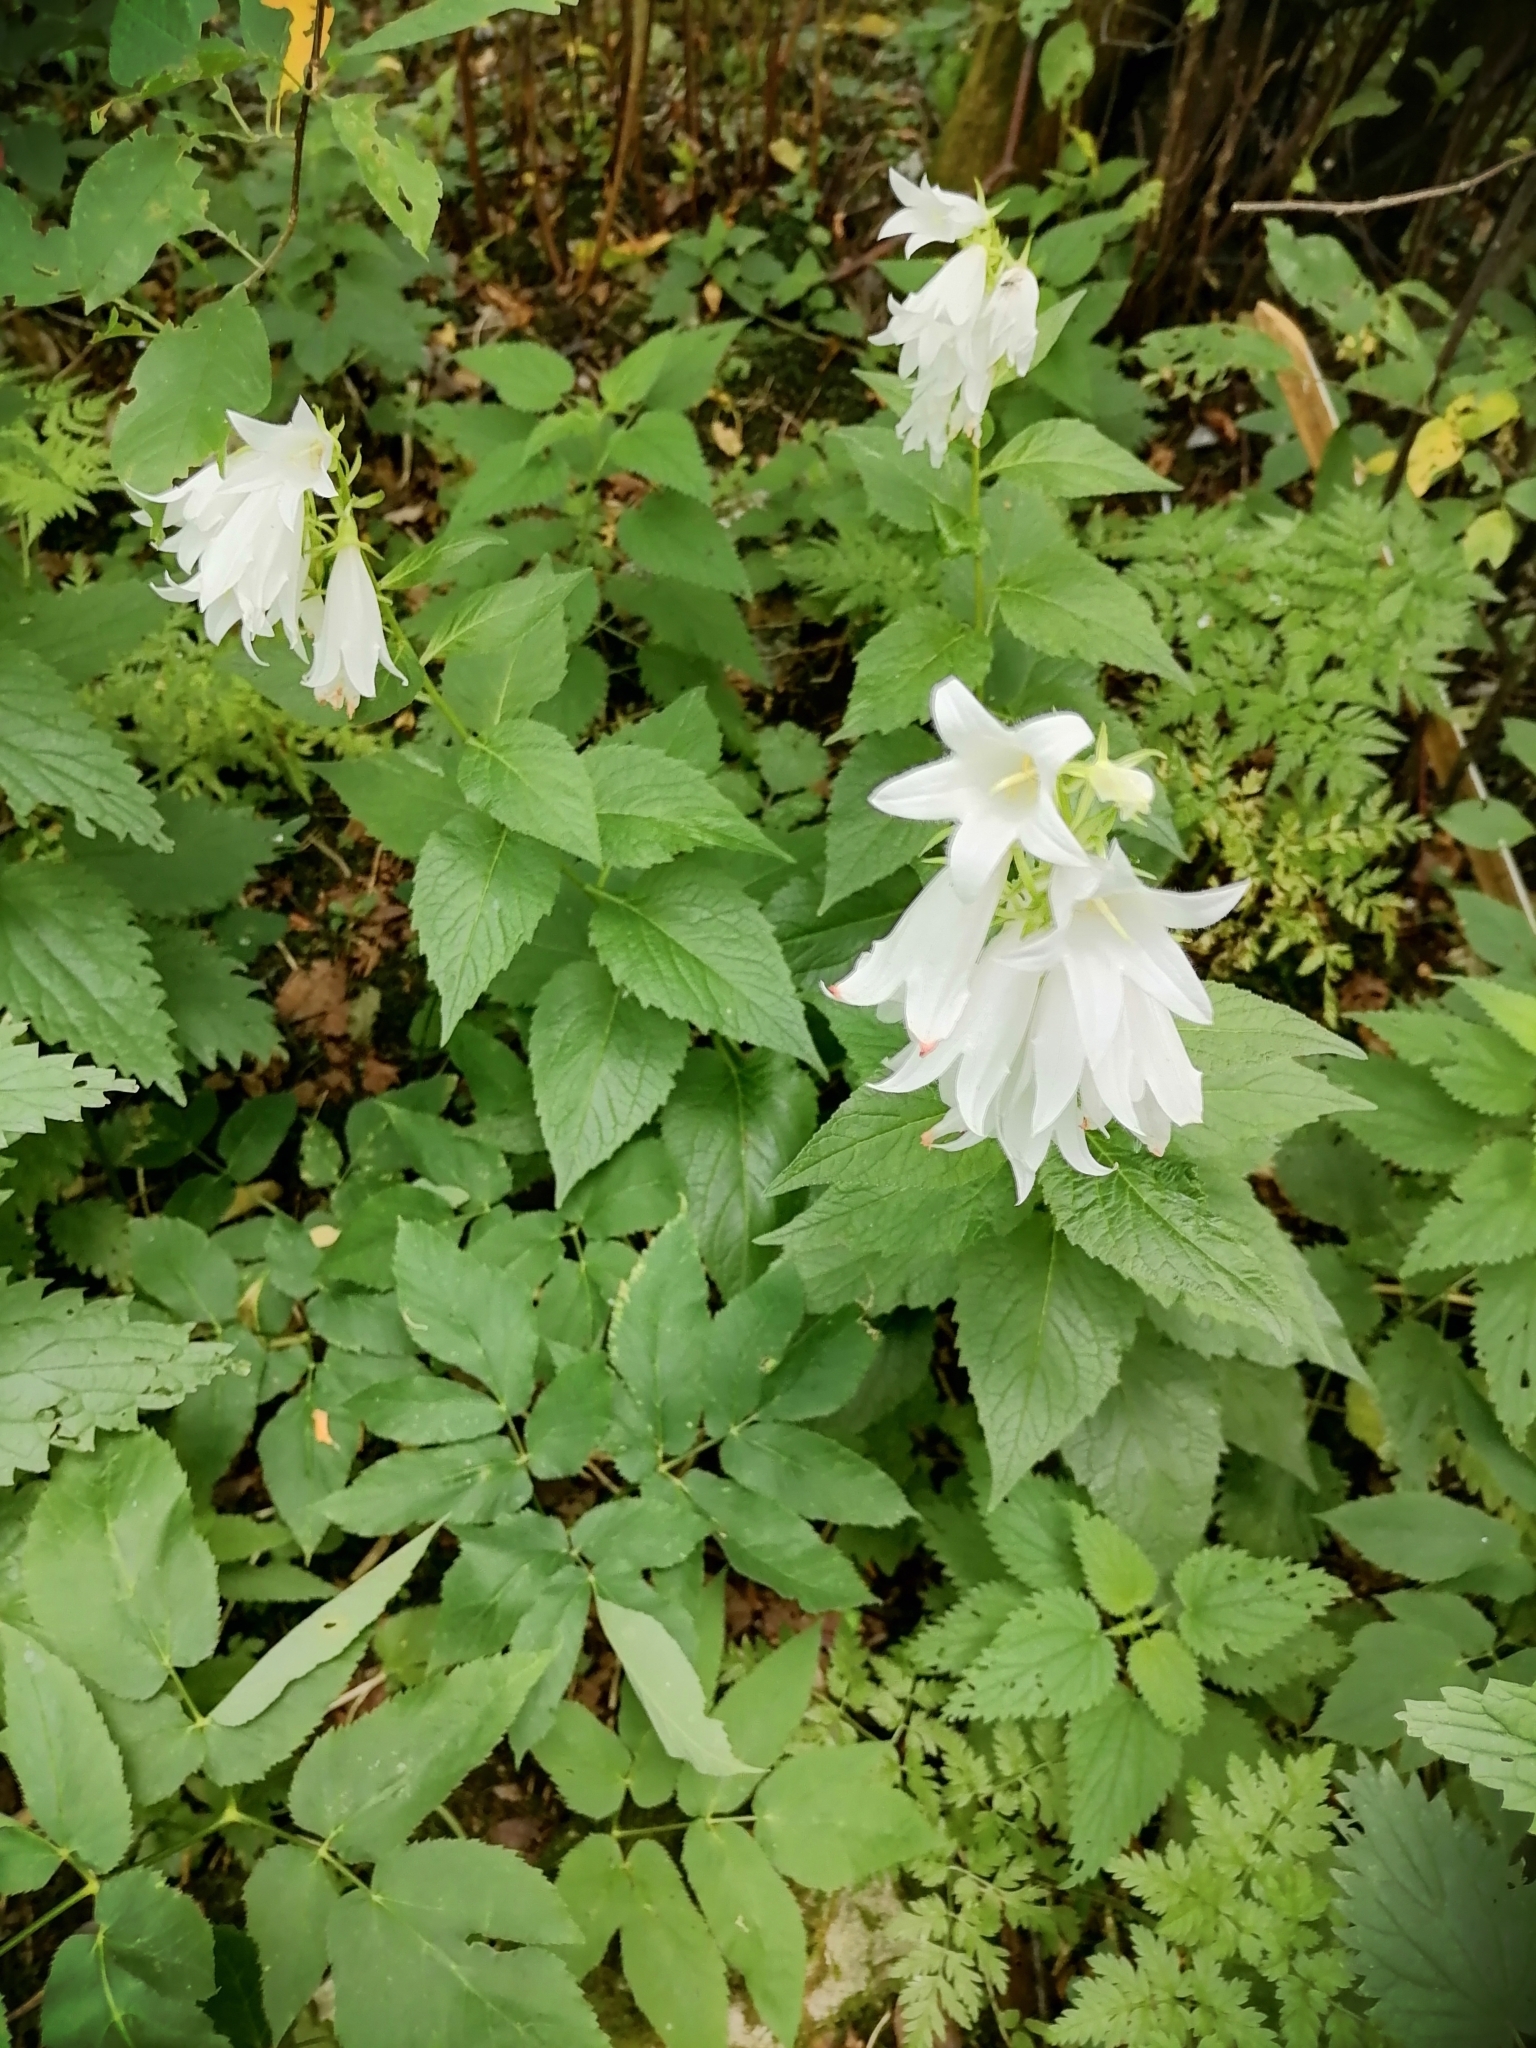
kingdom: Plantae
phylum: Tracheophyta
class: Magnoliopsida
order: Asterales
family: Campanulaceae
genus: Campanula
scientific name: Campanula latifolia
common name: Giant bellflower
